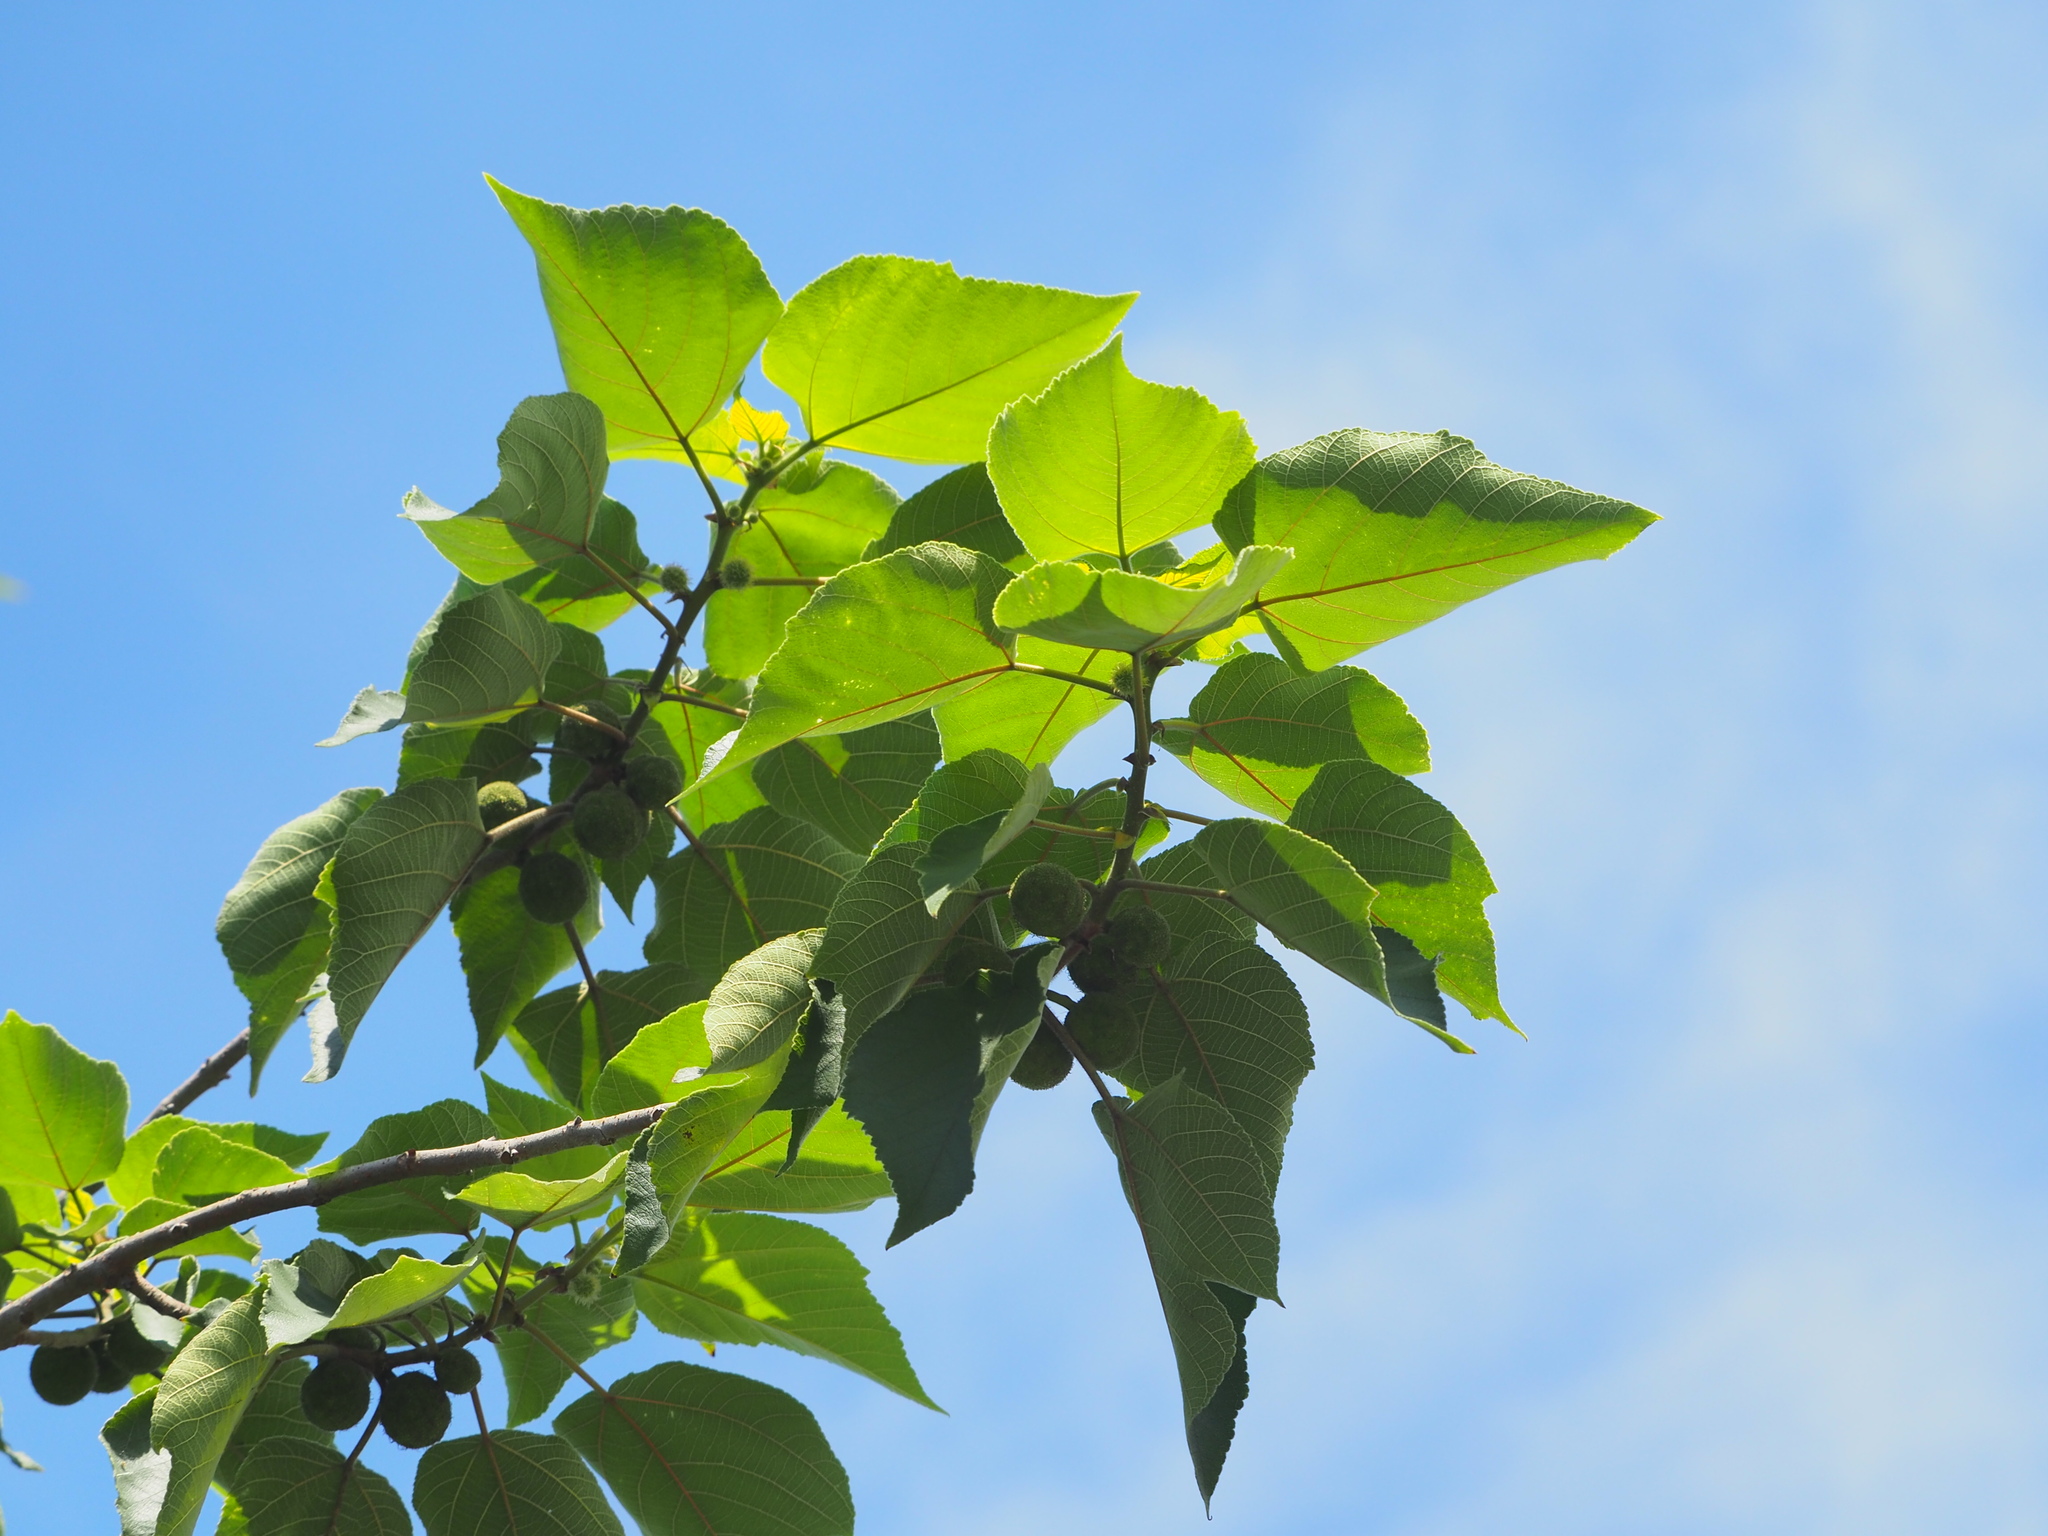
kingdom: Plantae
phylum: Tracheophyta
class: Magnoliopsida
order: Rosales
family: Moraceae
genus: Broussonetia
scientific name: Broussonetia papyrifera
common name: Paper mulberry
